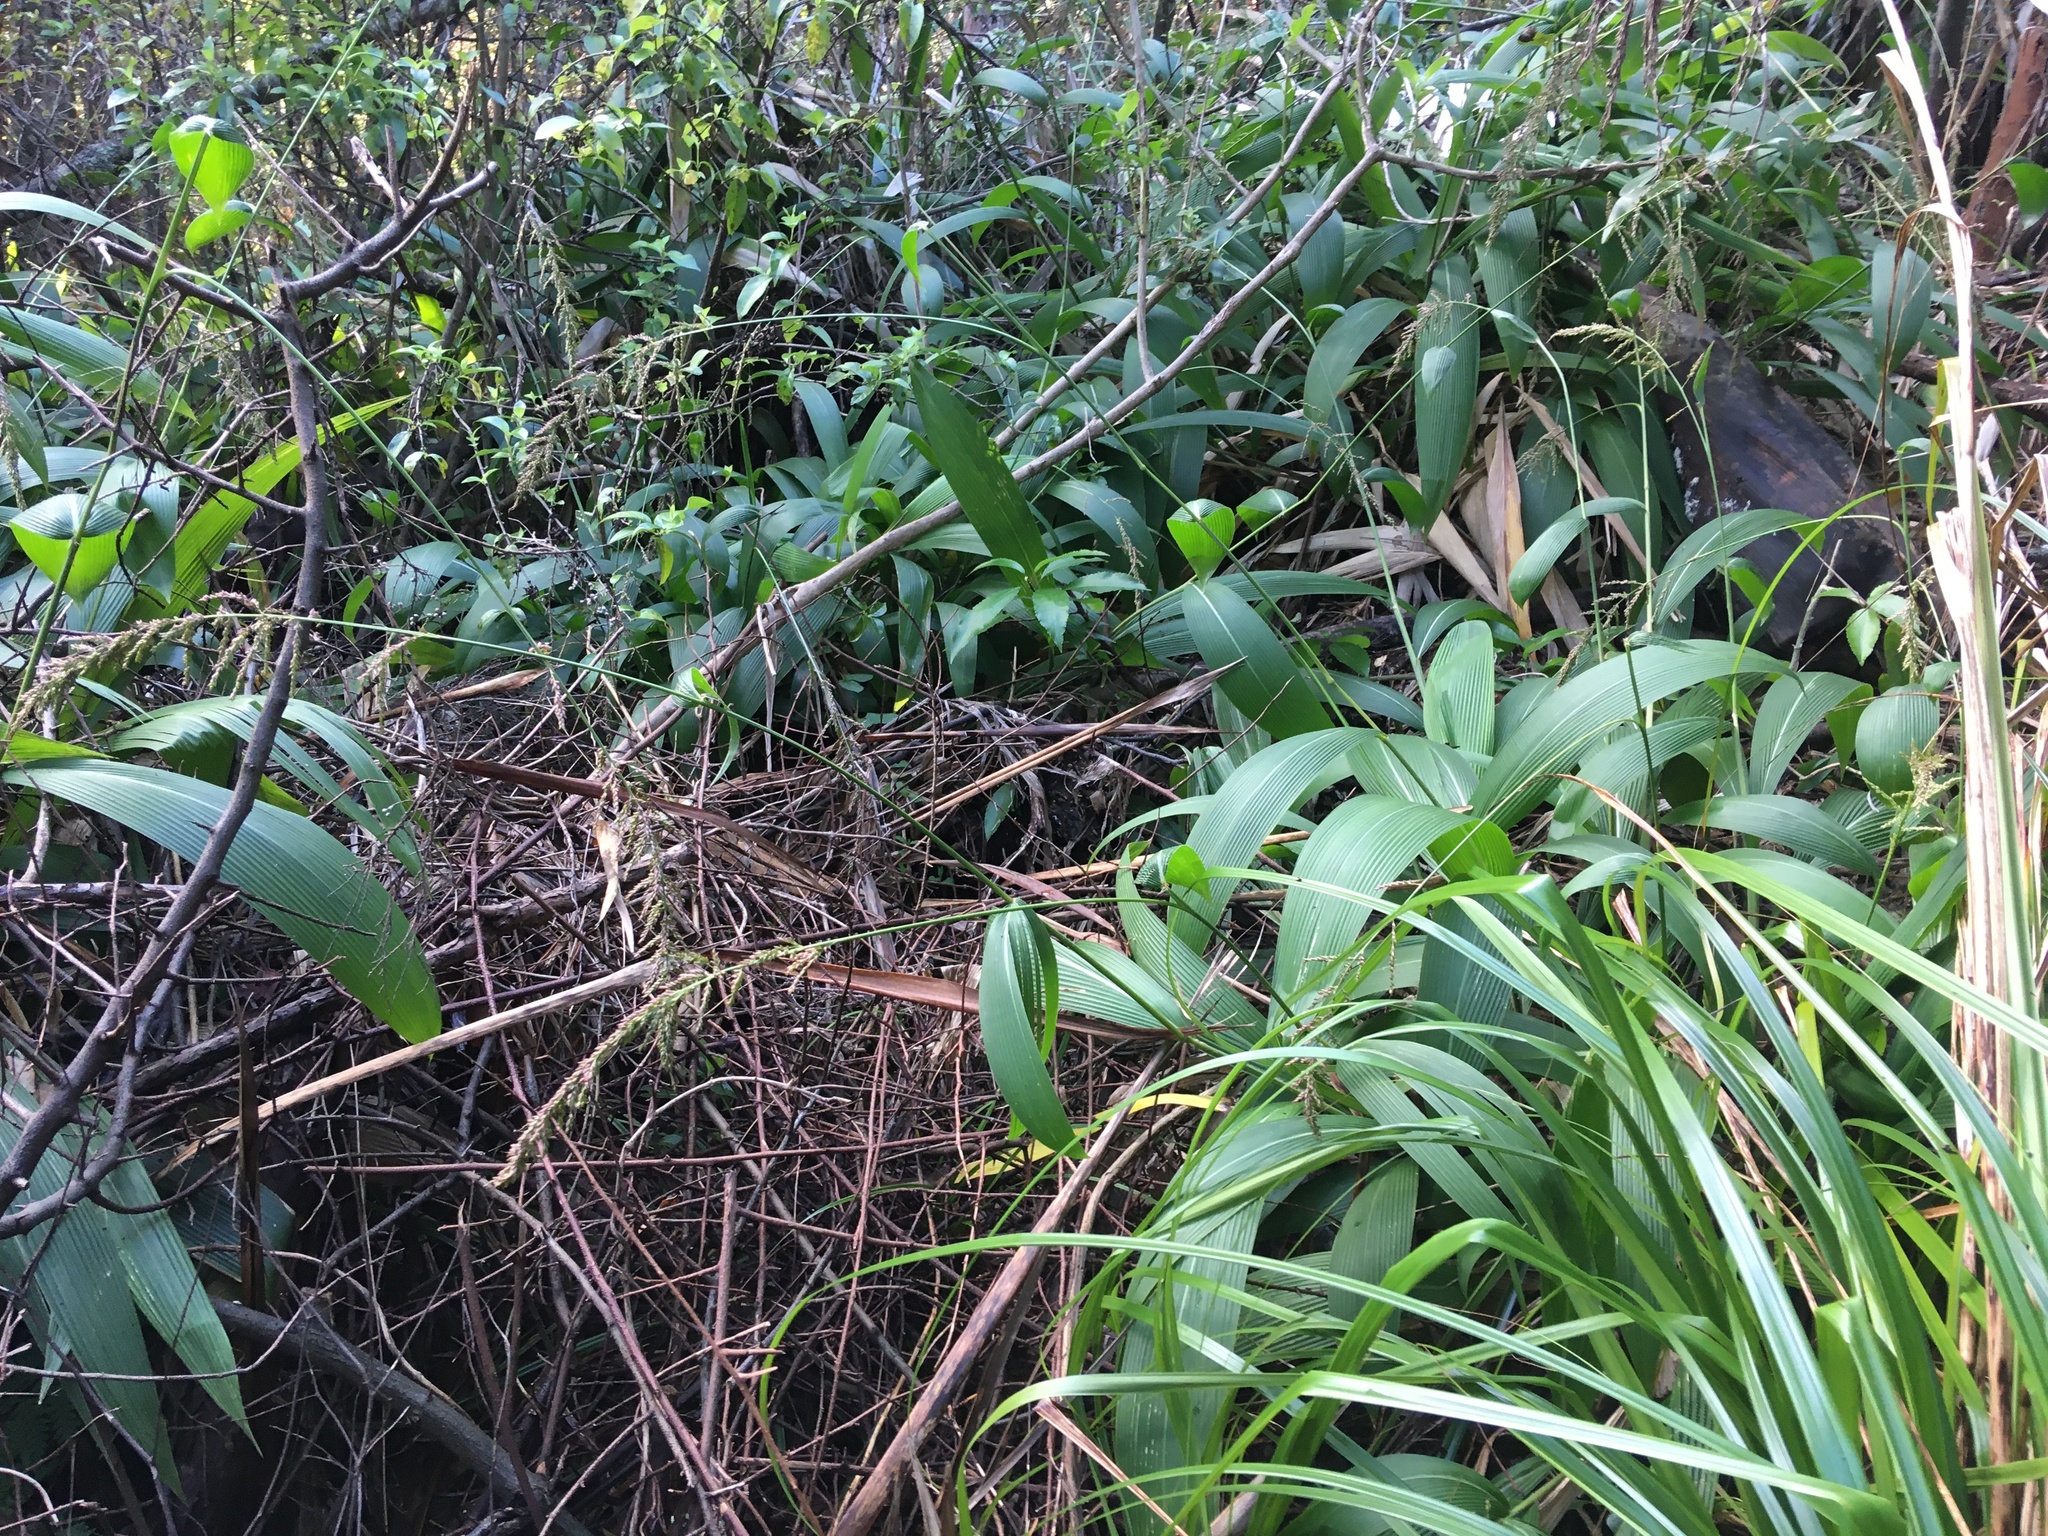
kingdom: Plantae
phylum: Tracheophyta
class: Liliopsida
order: Poales
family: Poaceae
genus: Setaria
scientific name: Setaria palmifolia
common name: Broadleaved bristlegrass
